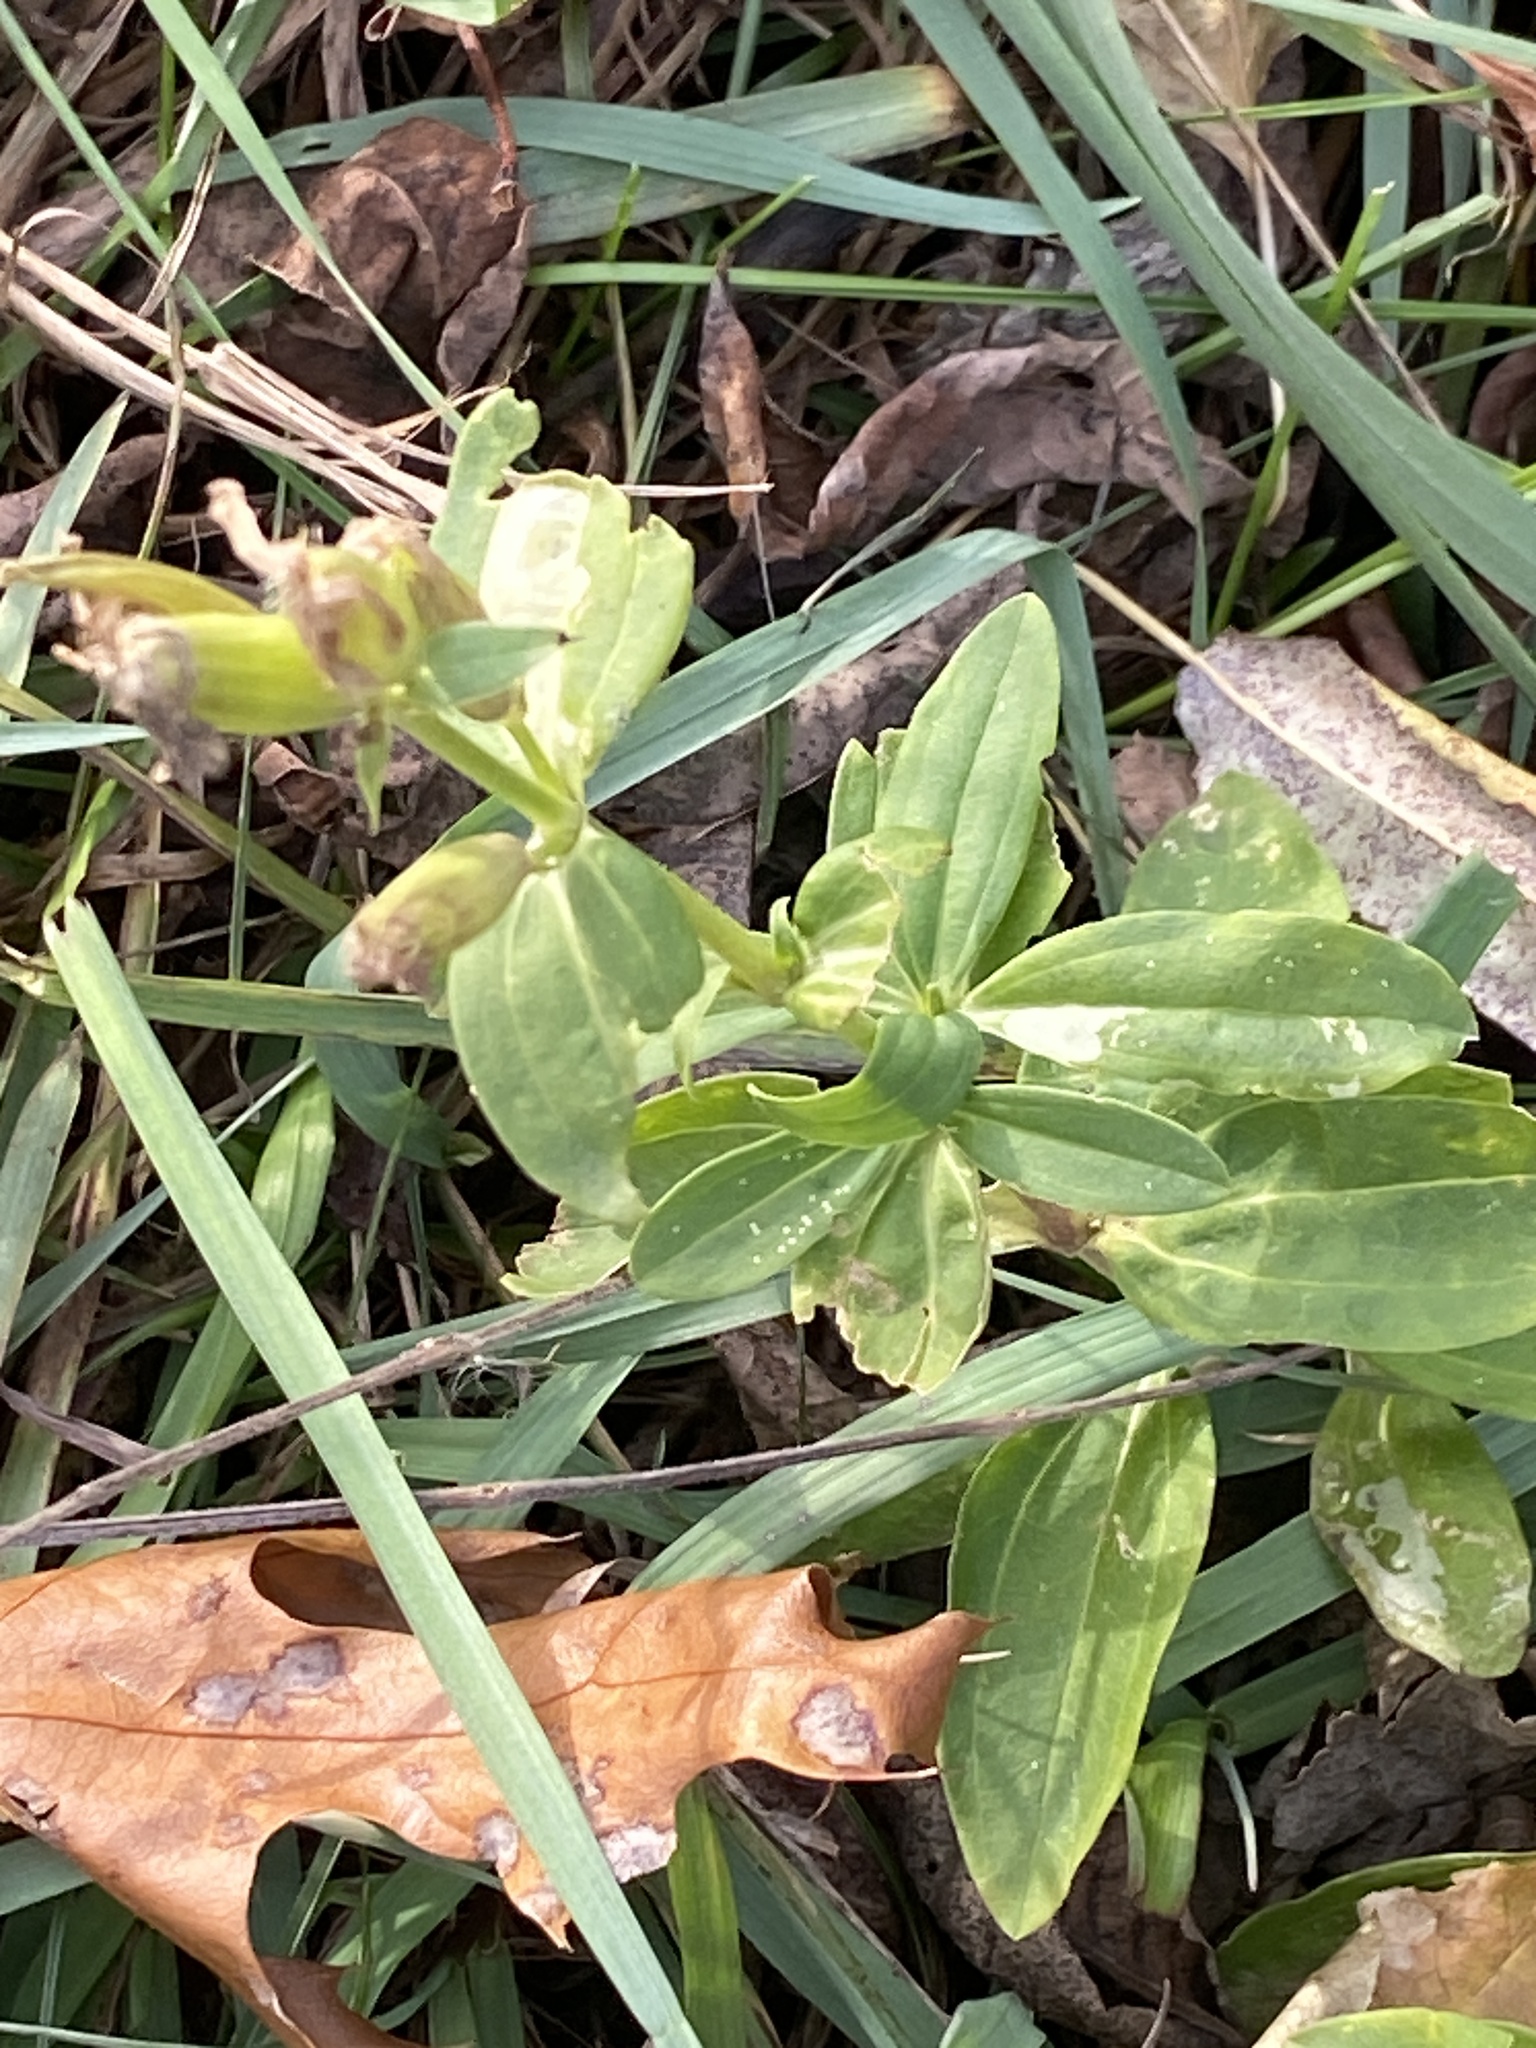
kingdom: Plantae
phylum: Tracheophyta
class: Magnoliopsida
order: Caryophyllales
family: Caryophyllaceae
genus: Saponaria
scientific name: Saponaria officinalis
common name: Soapwort
